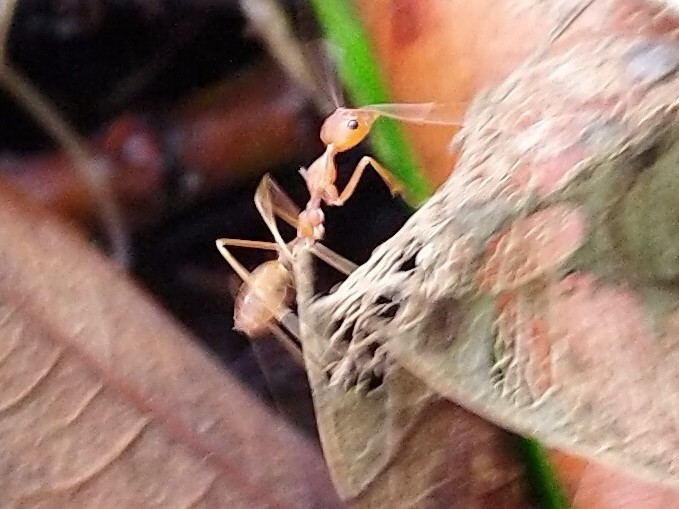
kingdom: Animalia
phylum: Arthropoda
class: Insecta
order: Hymenoptera
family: Formicidae
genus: Oecophylla
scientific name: Oecophylla smaragdina
